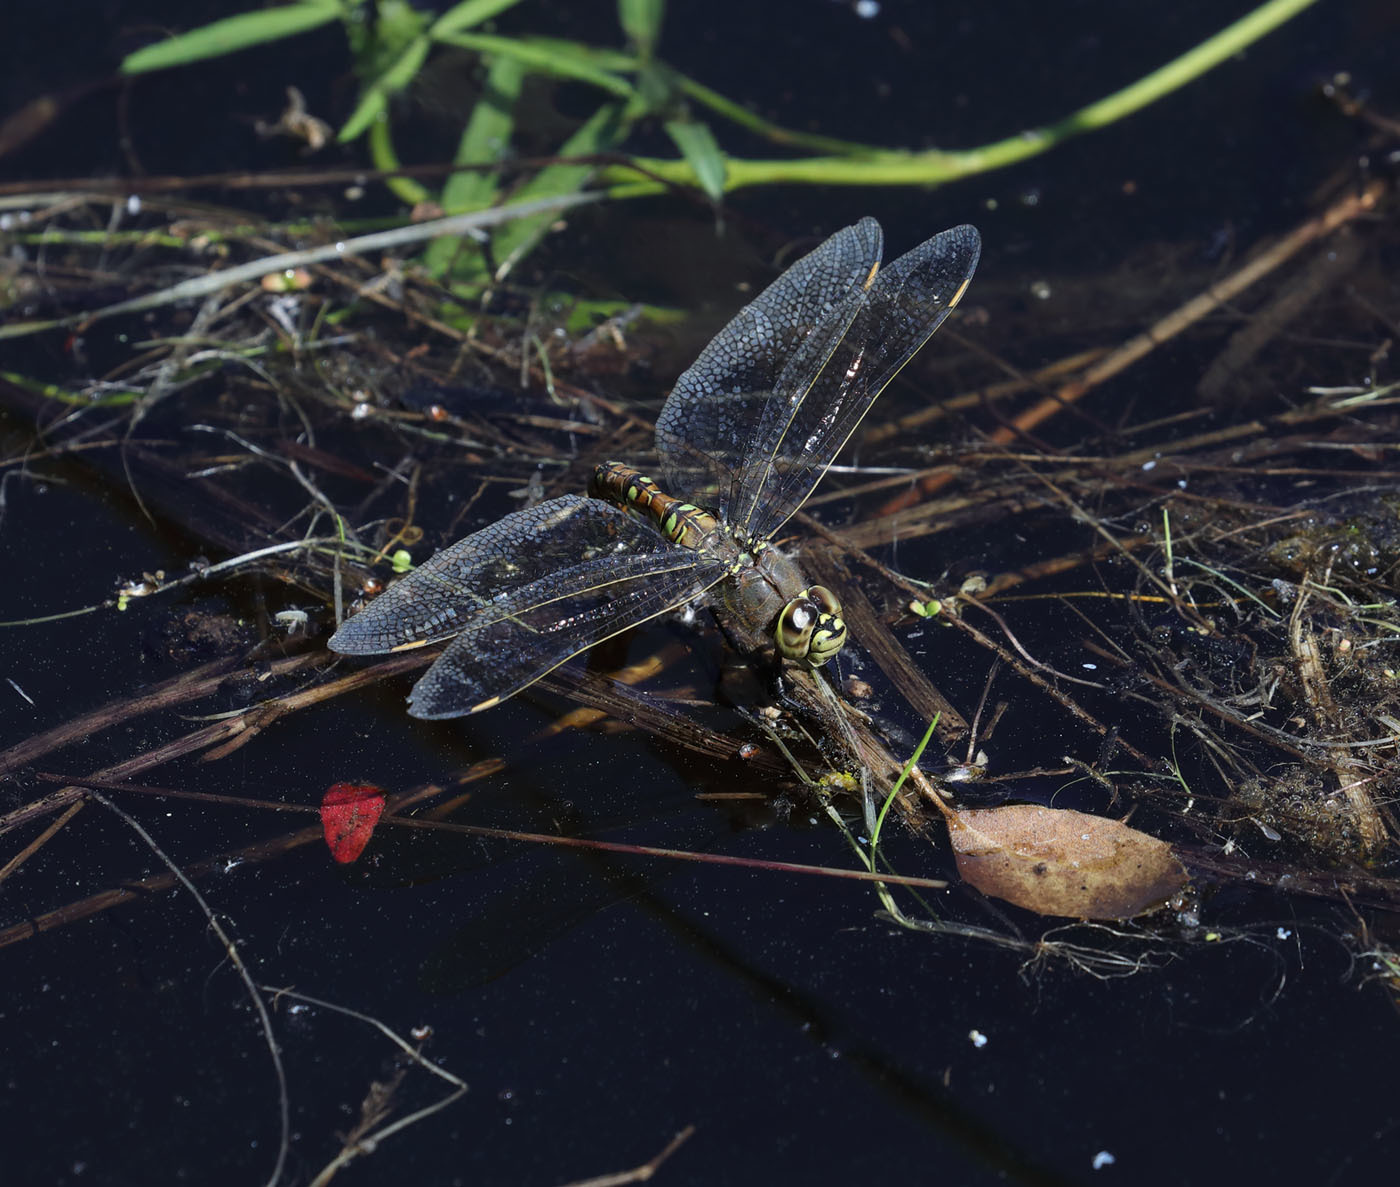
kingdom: Animalia
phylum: Arthropoda
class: Insecta
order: Odonata
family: Aeshnidae
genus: Rhionaeschna
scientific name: Rhionaeschna californica
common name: California darner
